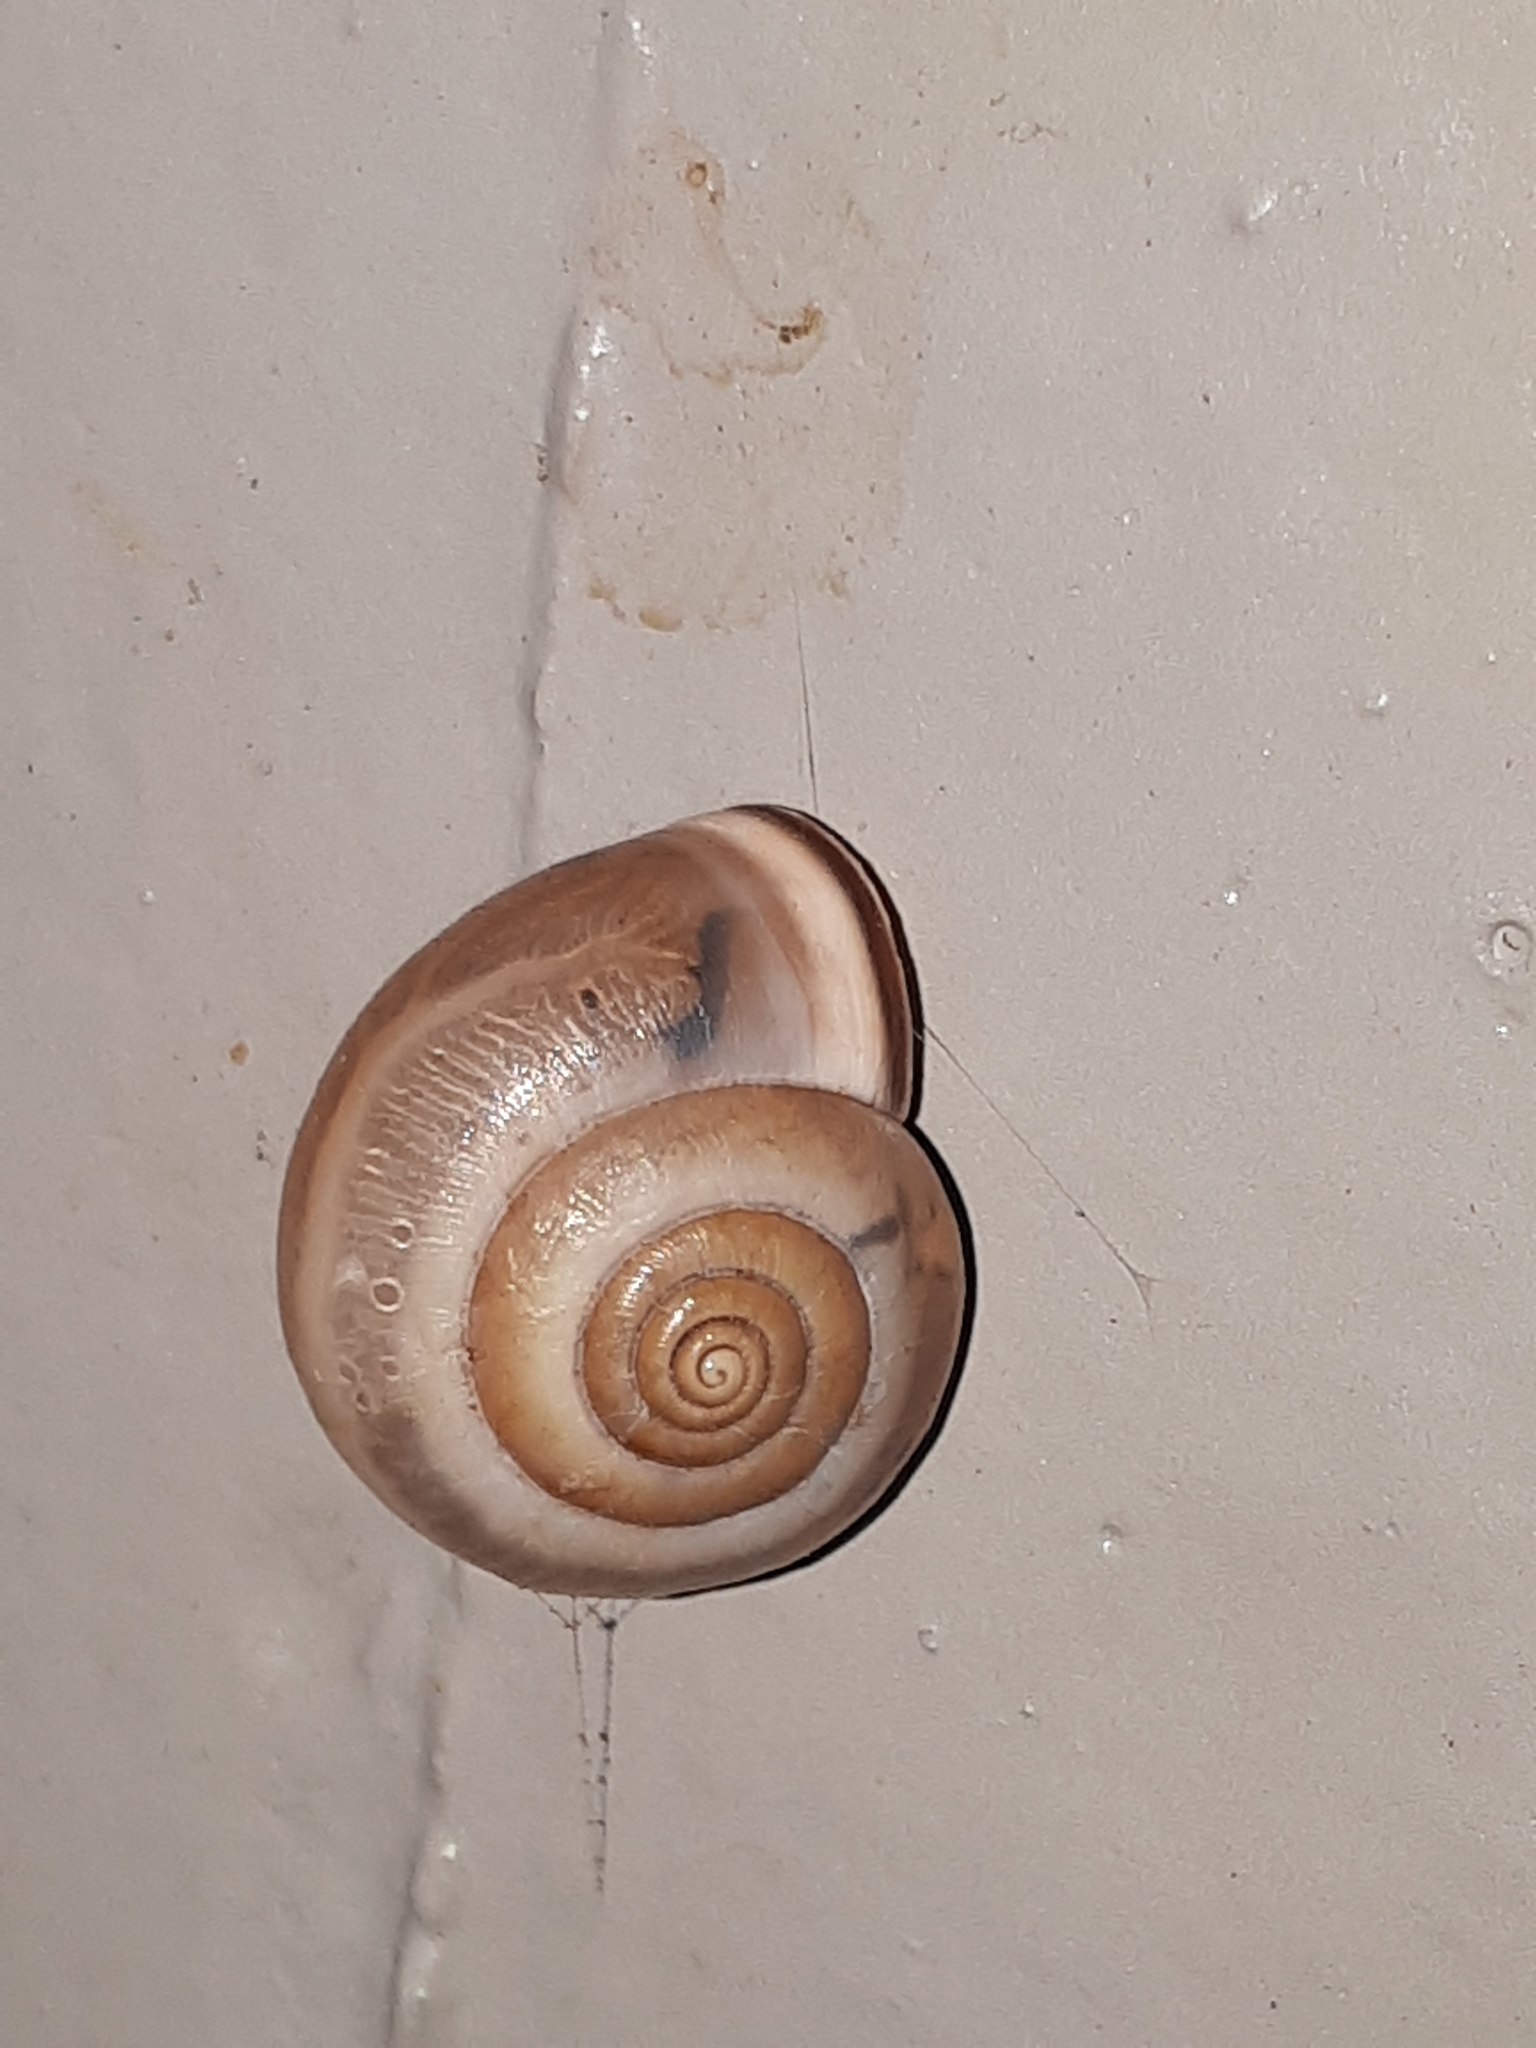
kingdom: Animalia
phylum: Mollusca
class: Gastropoda
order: Stylommatophora
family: Hygromiidae
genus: Monacha
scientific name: Monacha cartusiana
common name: Carthusian snail
